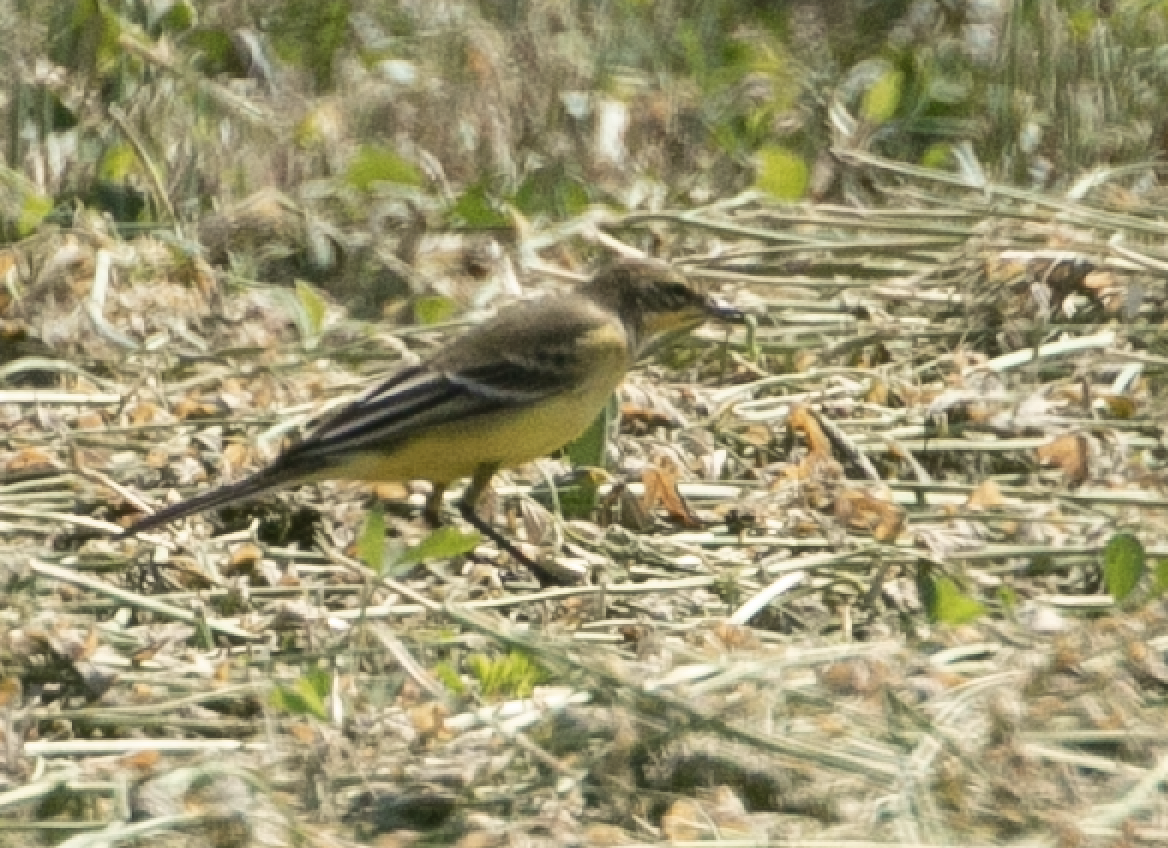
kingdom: Animalia
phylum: Chordata
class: Aves
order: Passeriformes
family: Motacillidae
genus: Motacilla
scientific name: Motacilla flava
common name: Western yellow wagtail
